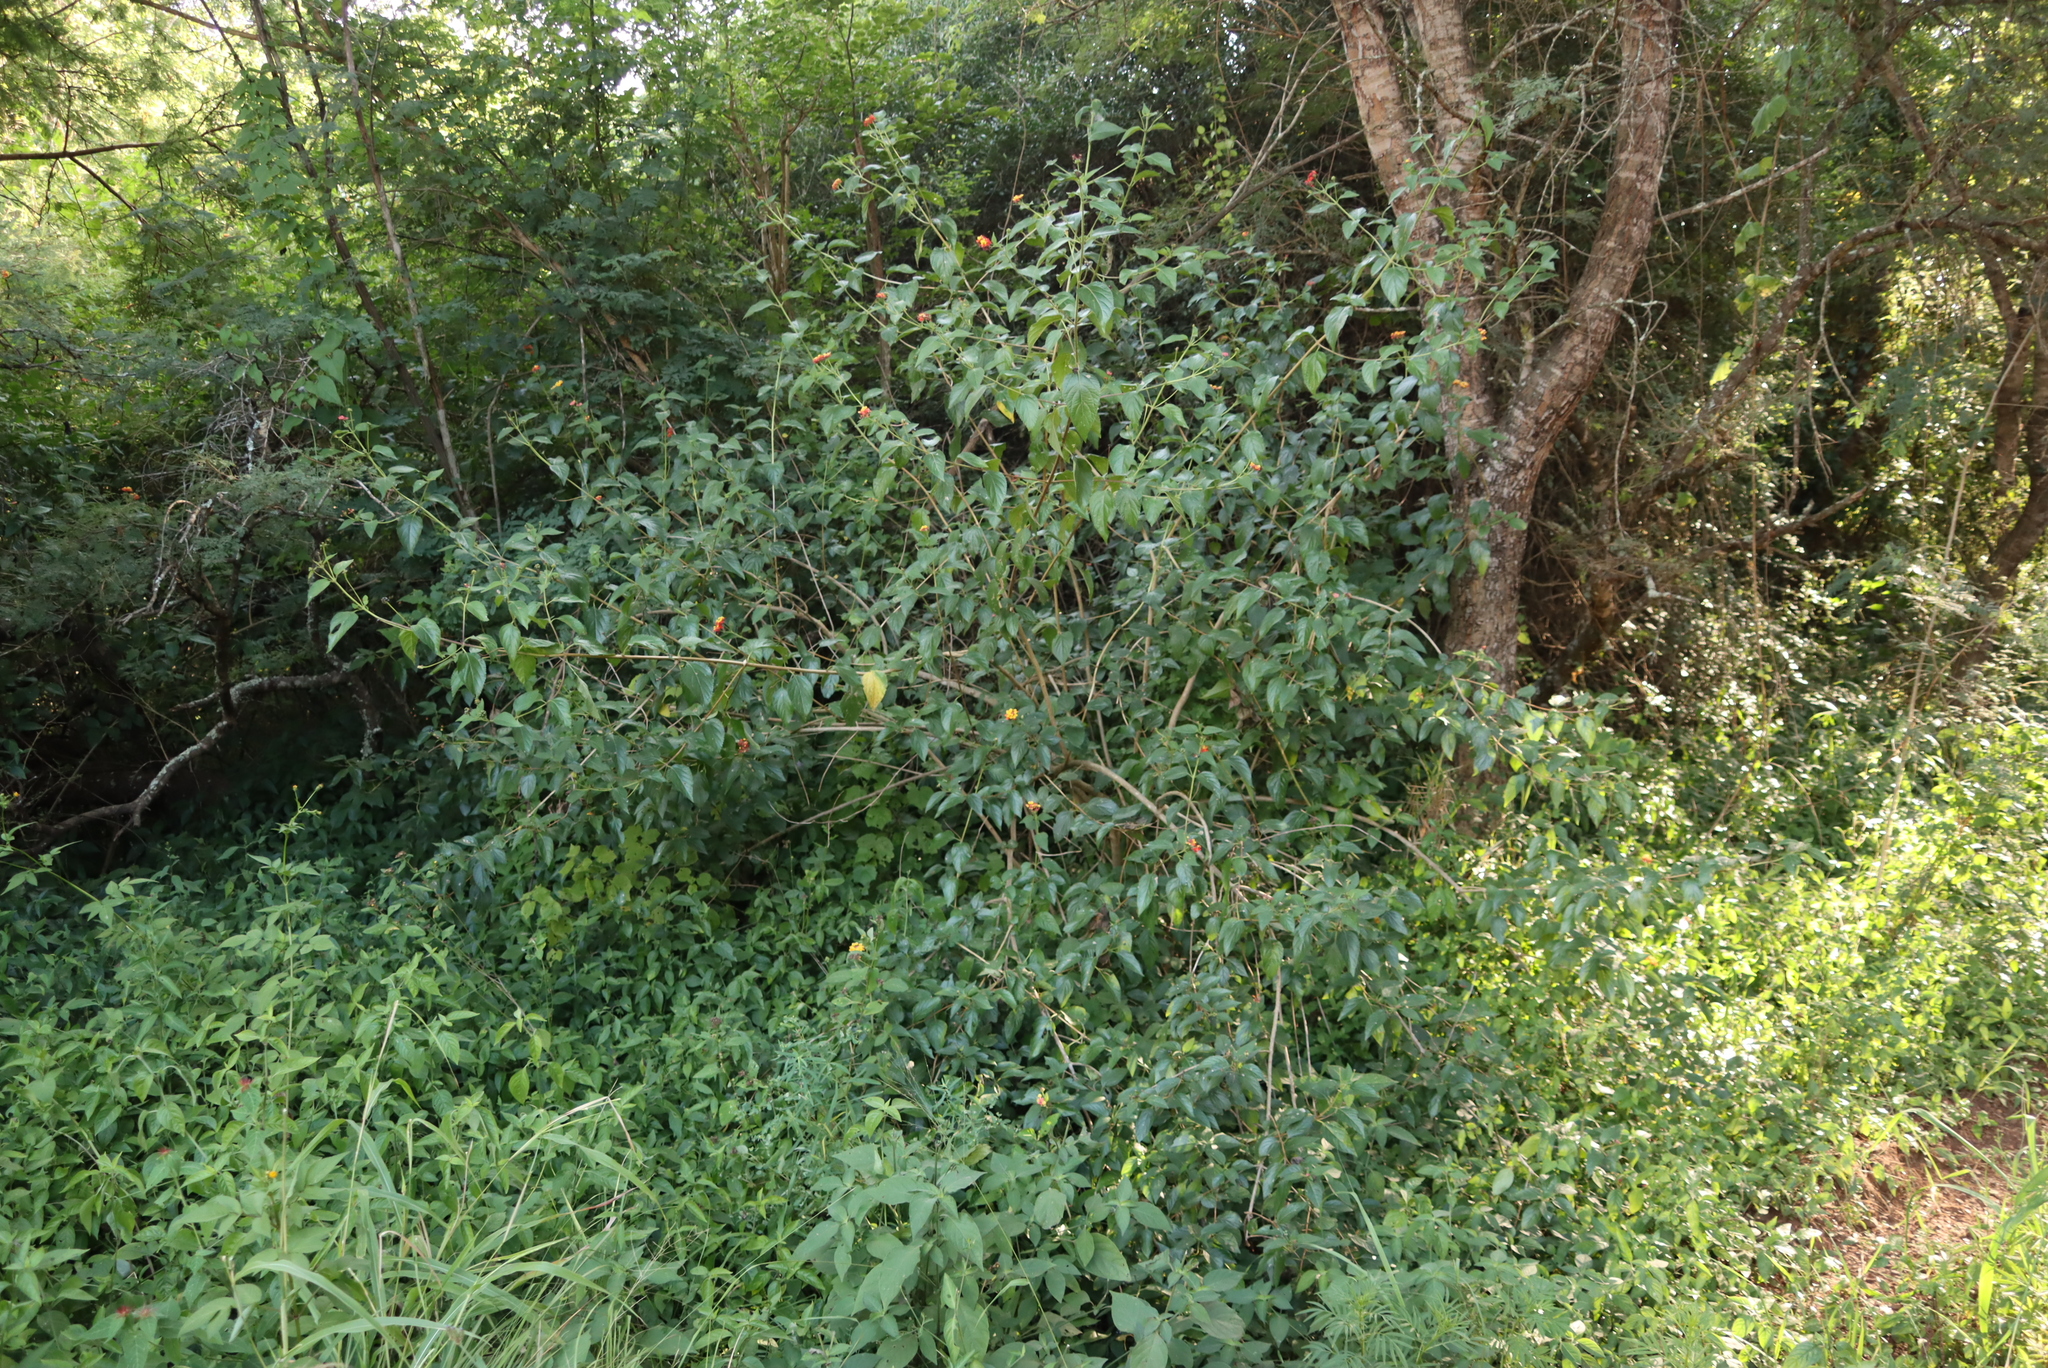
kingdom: Plantae
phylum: Tracheophyta
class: Magnoliopsida
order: Lamiales
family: Verbenaceae
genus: Lantana
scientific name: Lantana camara
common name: Lantana
